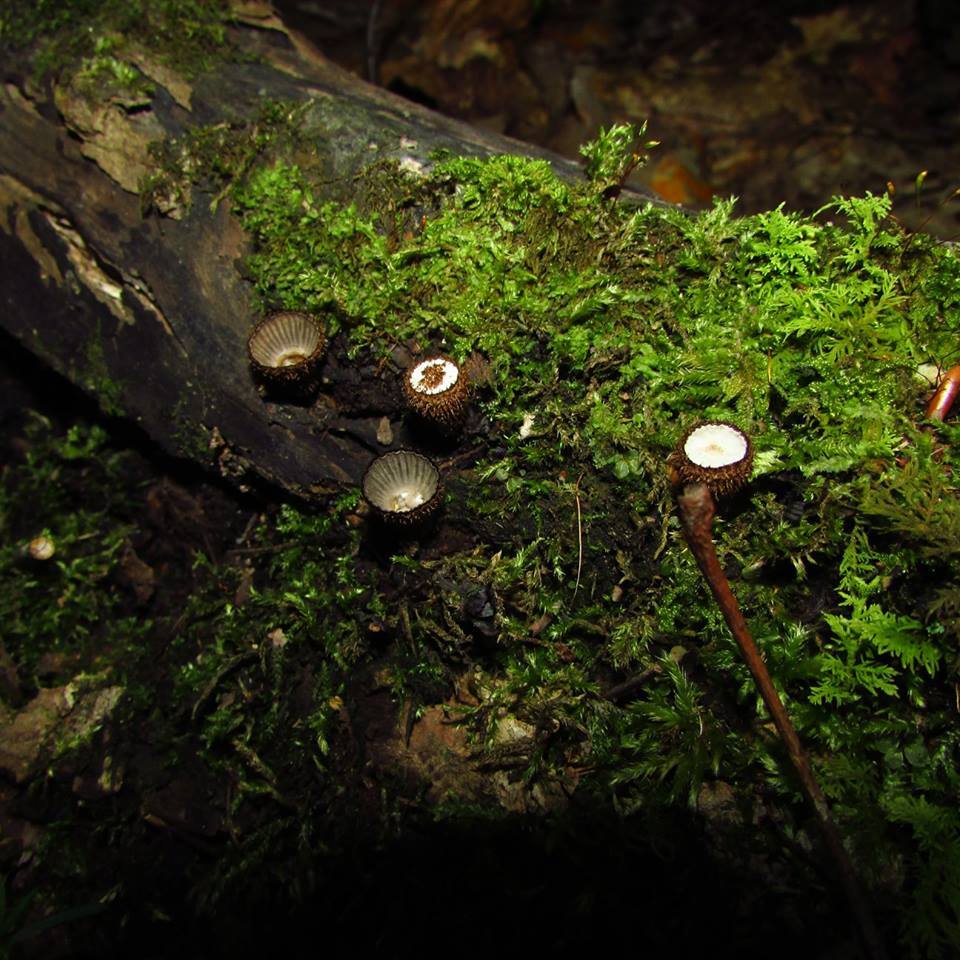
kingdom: Fungi
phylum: Basidiomycota
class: Agaricomycetes
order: Agaricales
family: Agaricaceae
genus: Cyathus
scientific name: Cyathus striatus
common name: Fluted bird's nest
